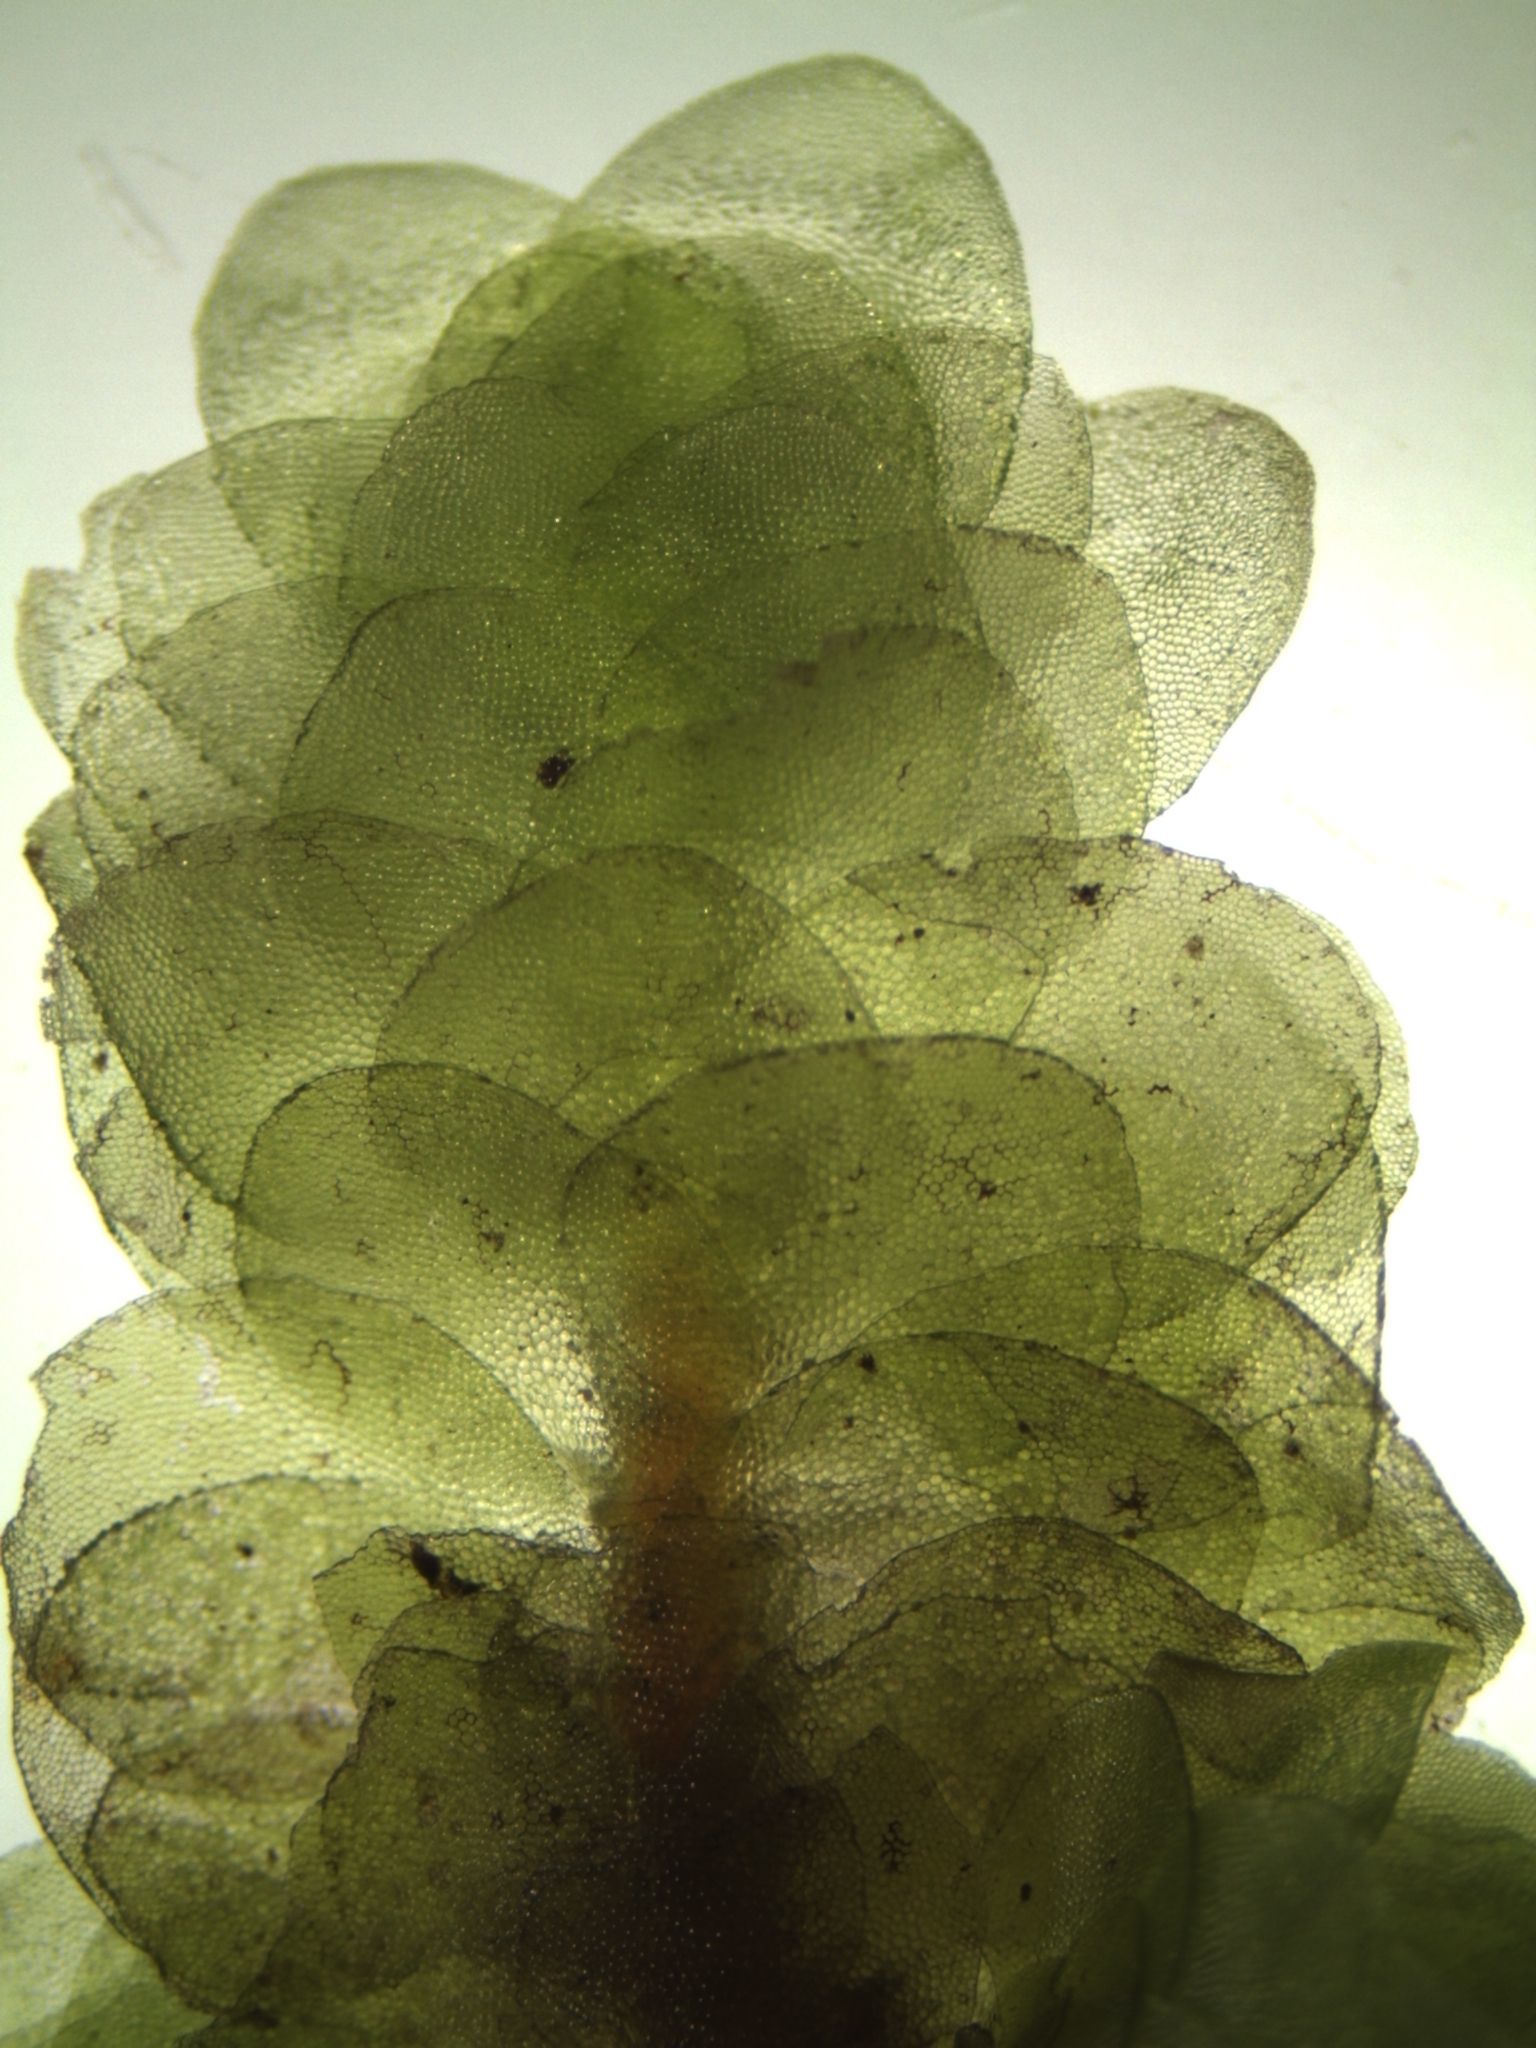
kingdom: Plantae
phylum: Bryophyta
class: Bryopsida
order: Hookeriales
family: Daltoniaceae
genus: Achrophyllum
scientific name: Achrophyllum quadrifarium
